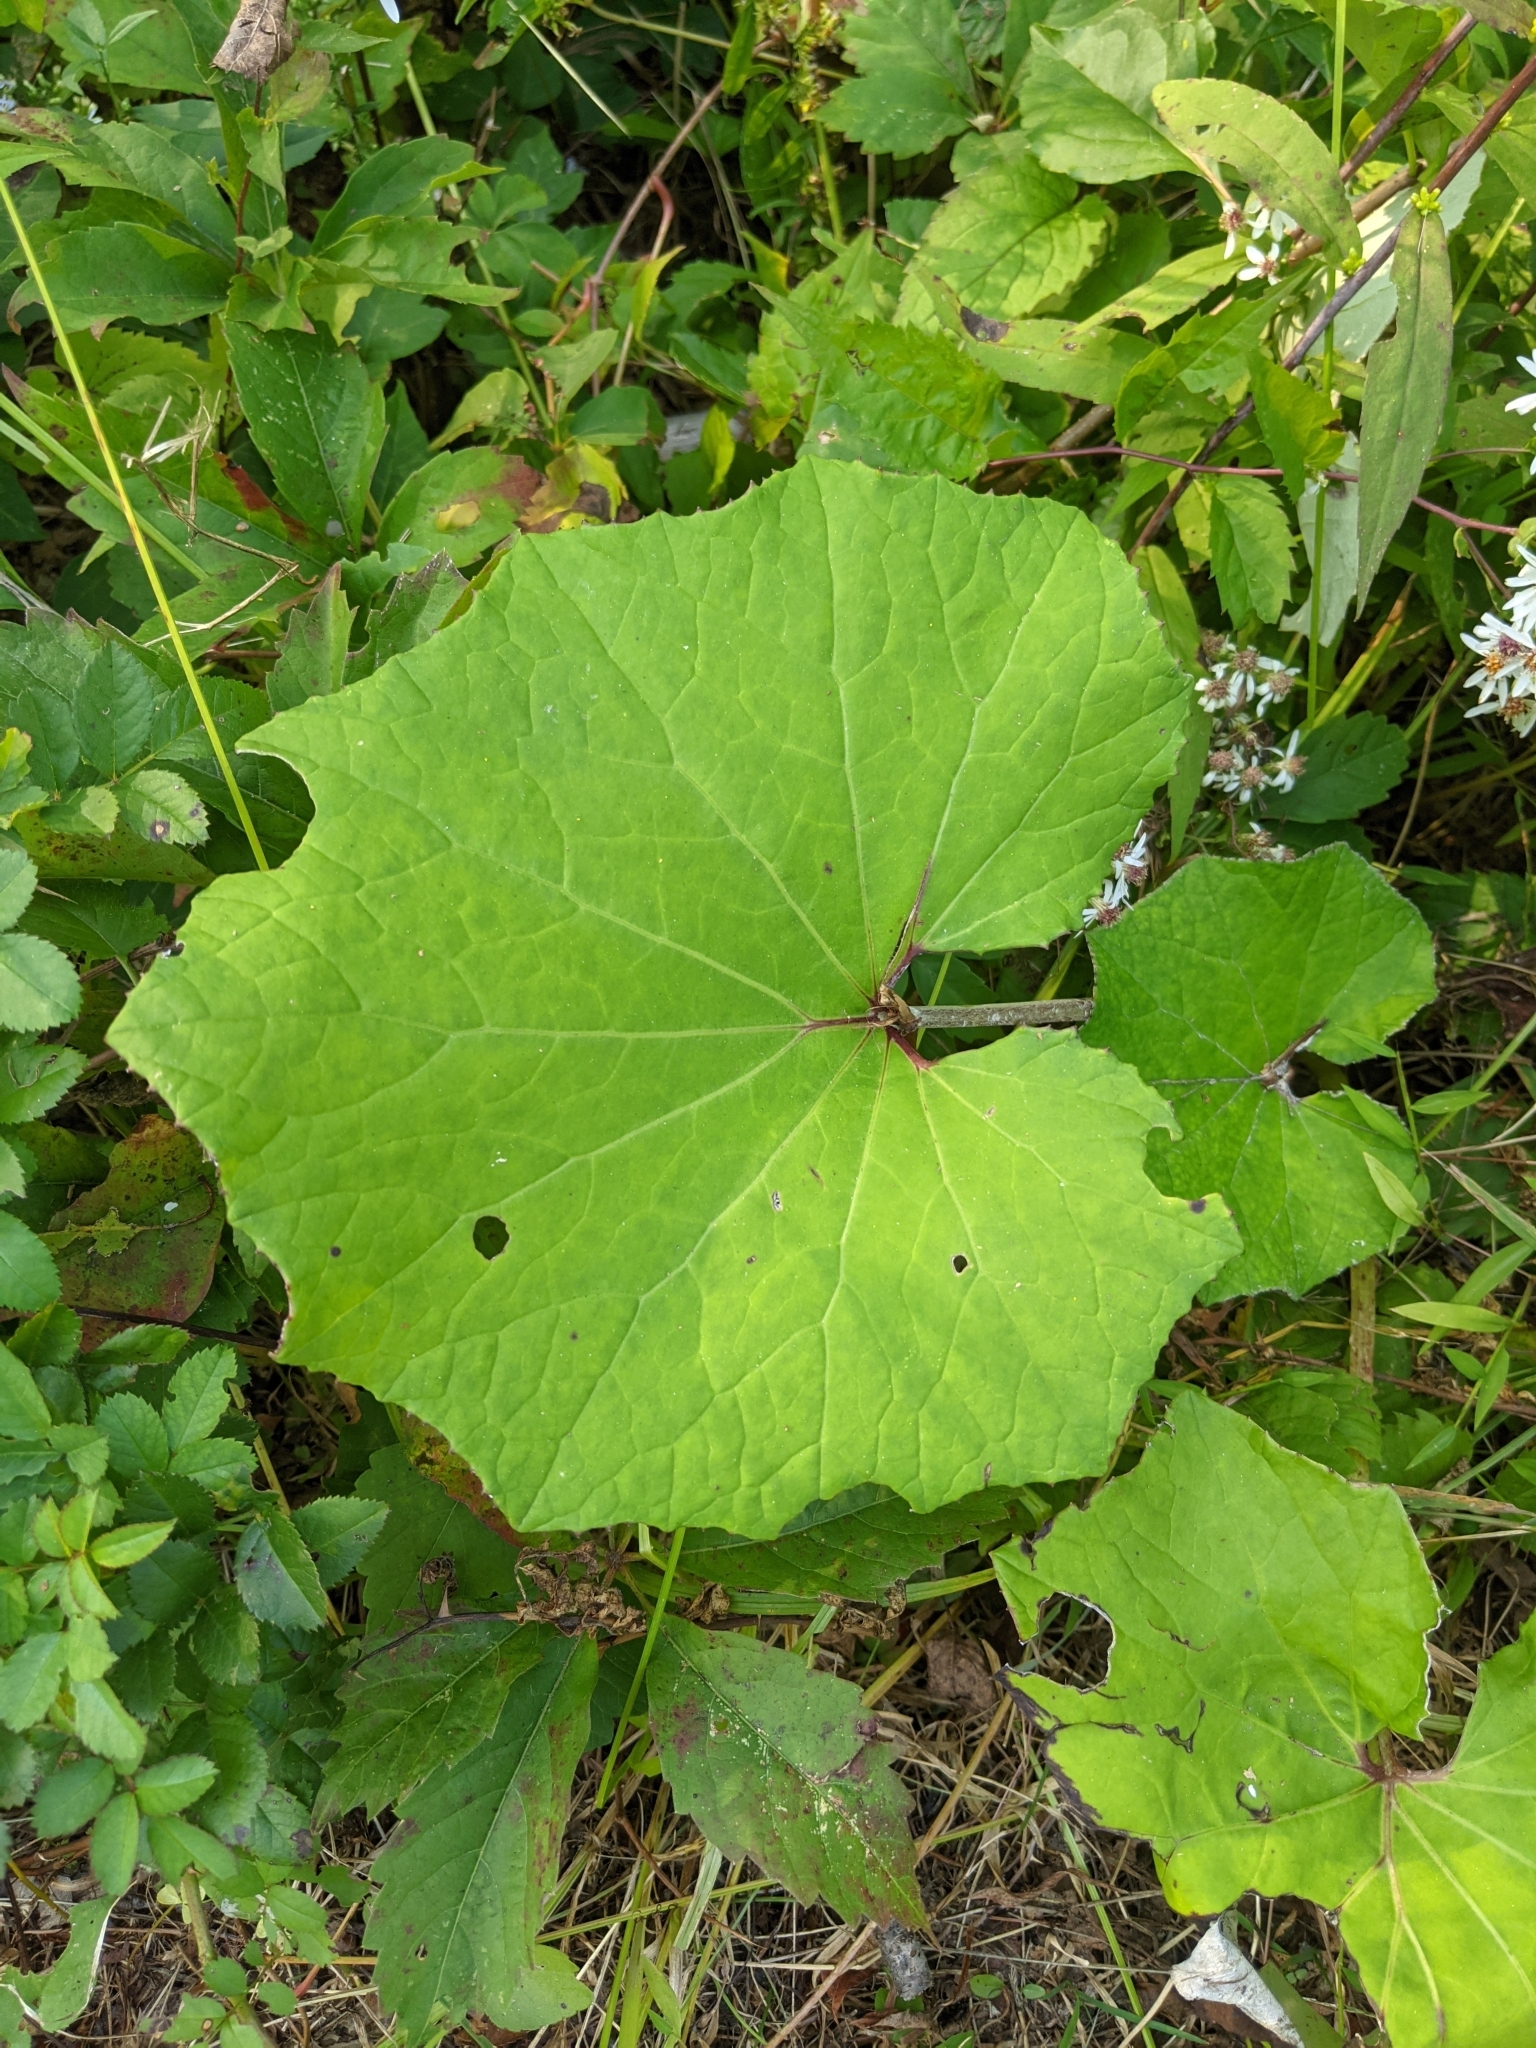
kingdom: Plantae
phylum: Tracheophyta
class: Magnoliopsida
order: Asterales
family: Asteraceae
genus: Tussilago
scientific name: Tussilago farfara
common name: Coltsfoot
